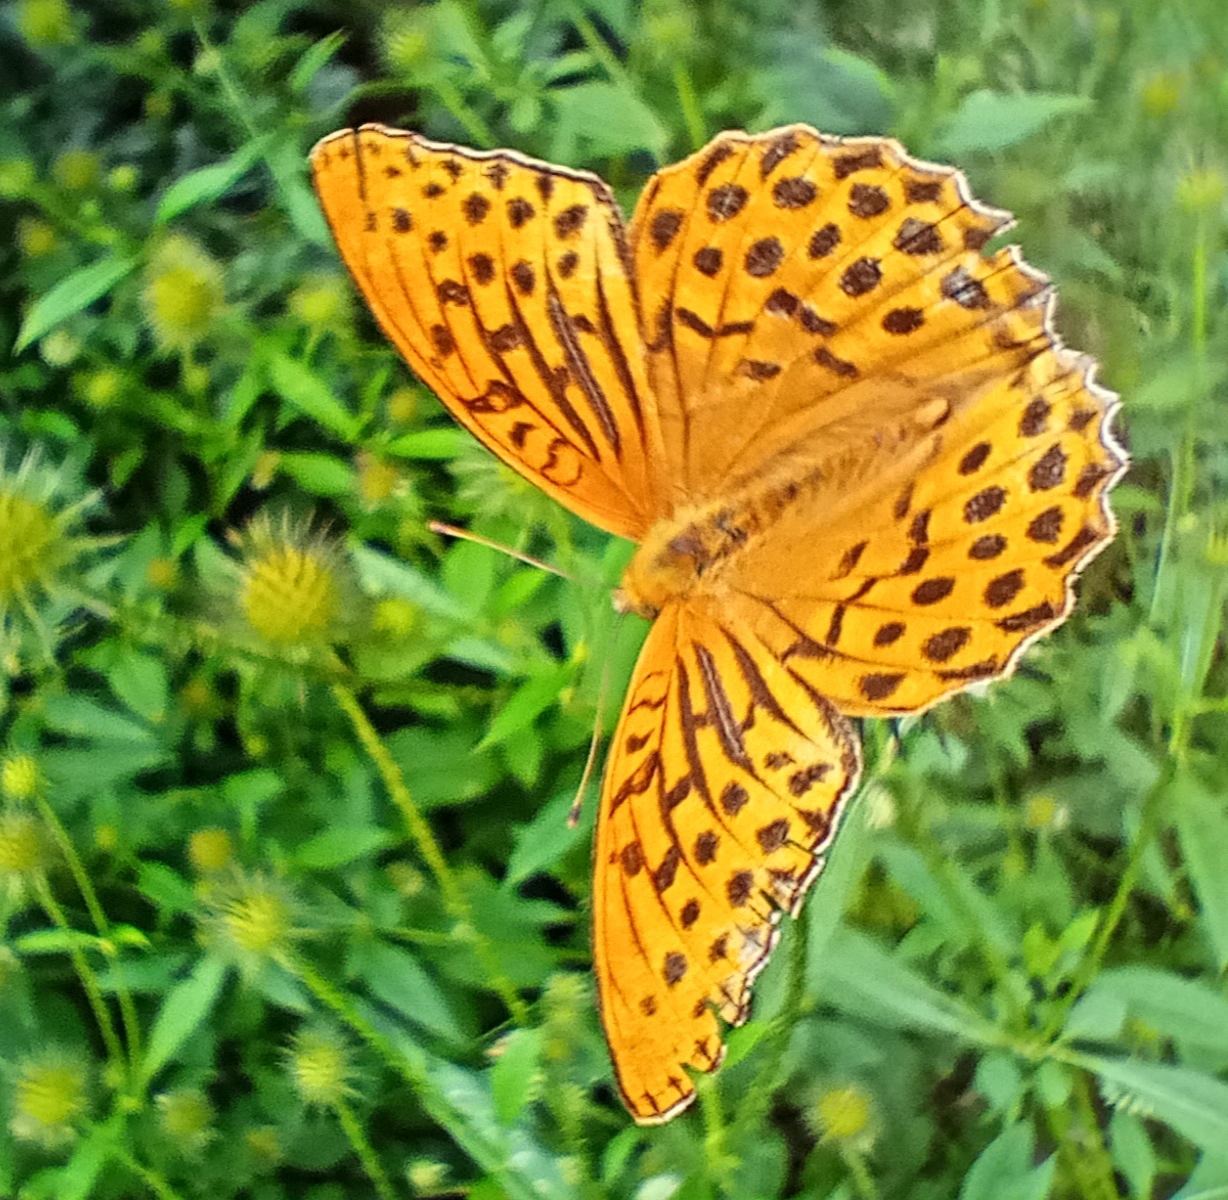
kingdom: Animalia
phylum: Arthropoda
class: Insecta
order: Lepidoptera
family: Nymphalidae
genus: Argynnis
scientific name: Argynnis paphia
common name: Silver-washed fritillary
